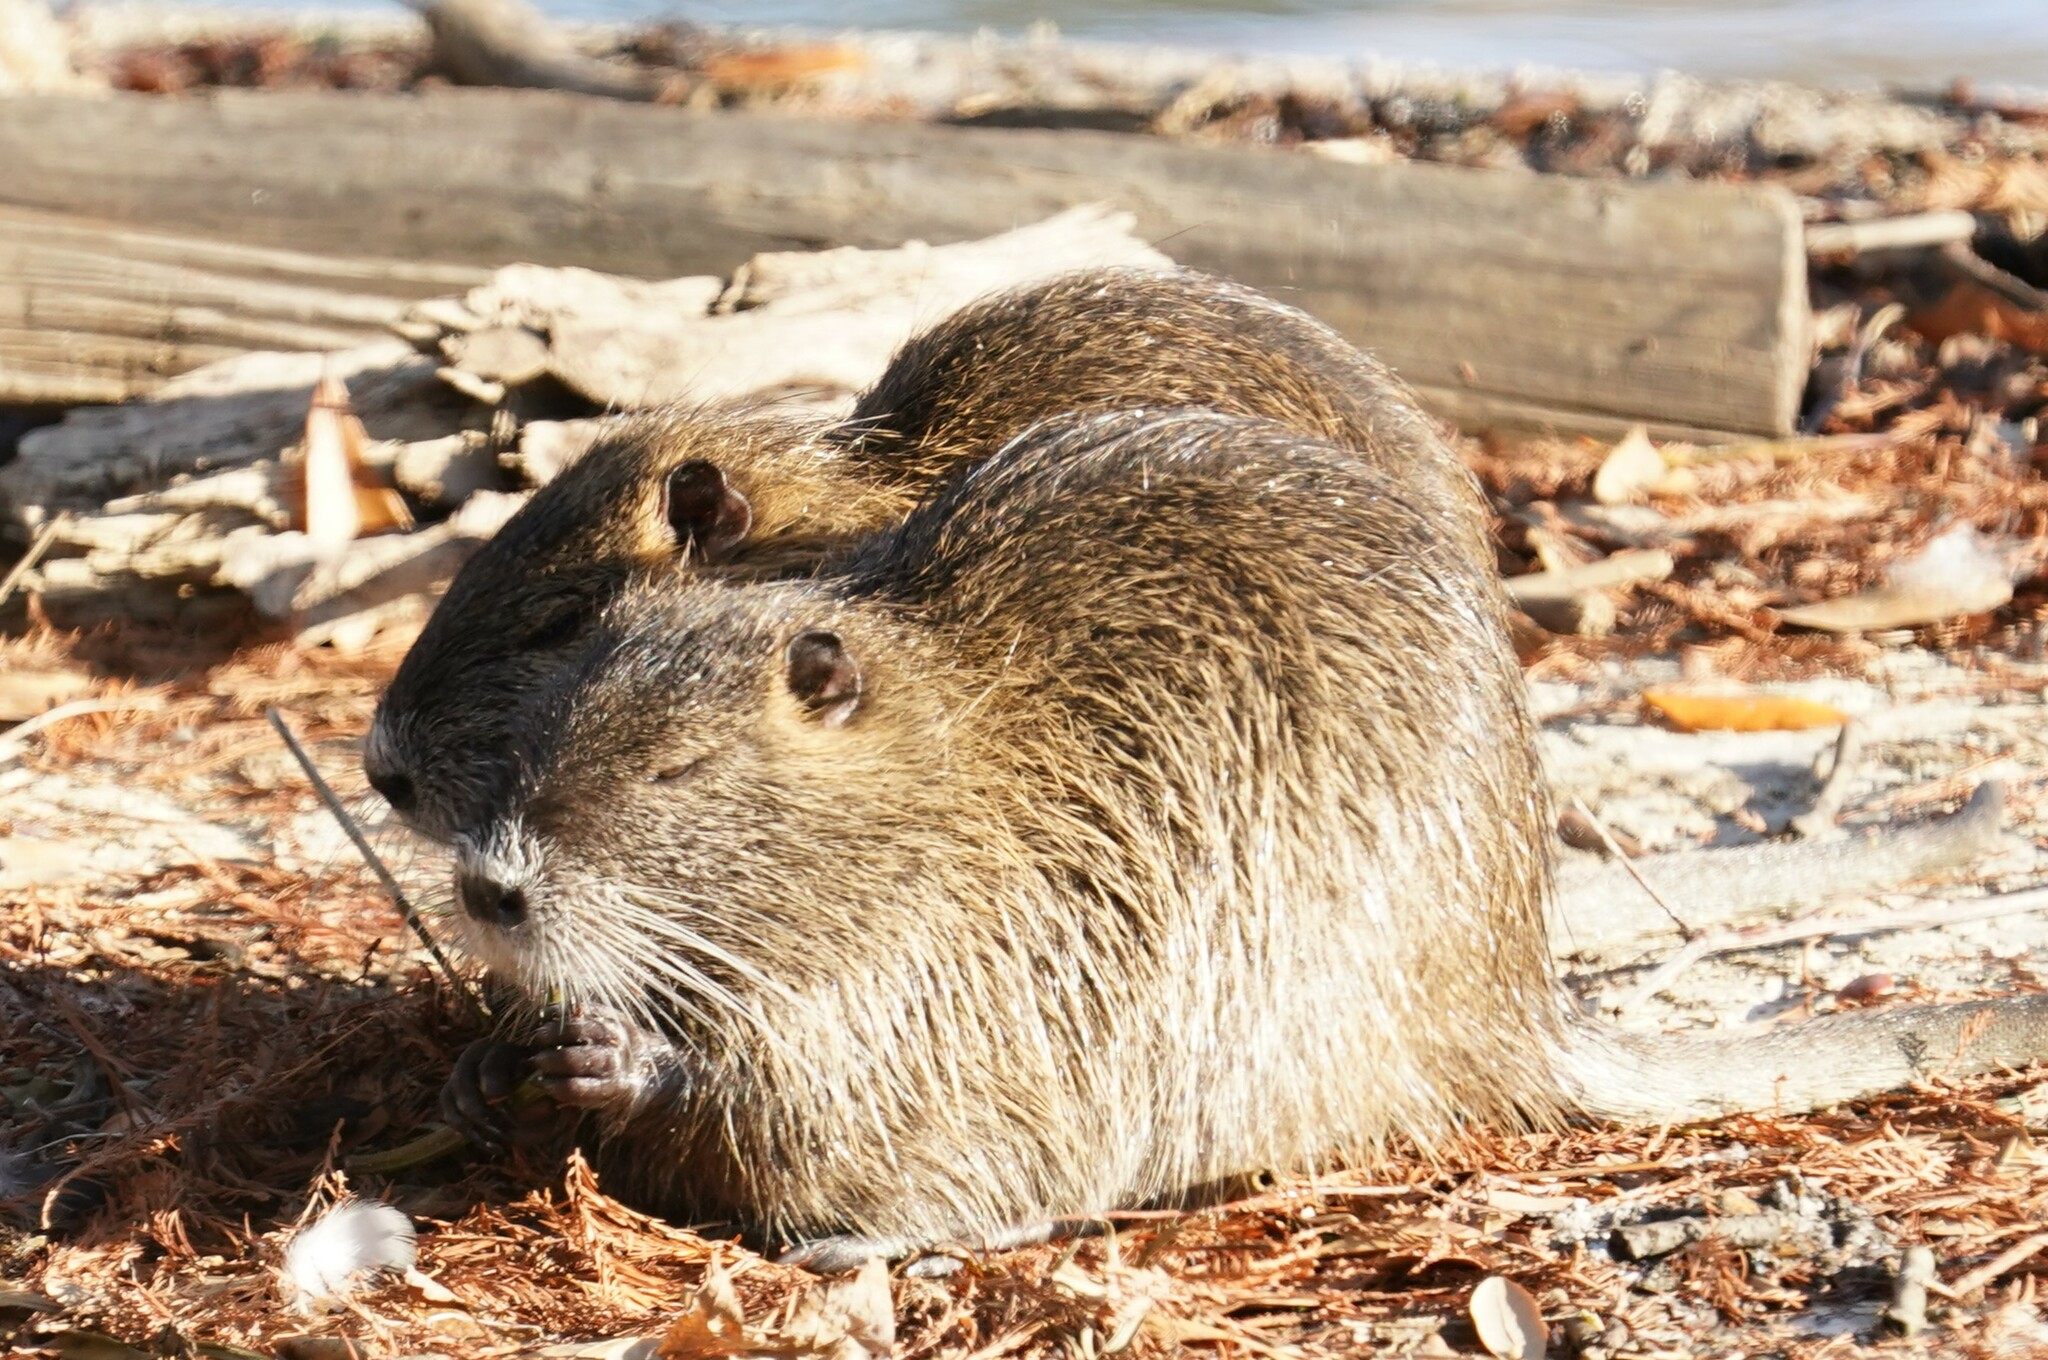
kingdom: Animalia
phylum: Chordata
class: Mammalia
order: Rodentia
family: Myocastoridae
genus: Myocastor
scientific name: Myocastor coypus
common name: Coypu
